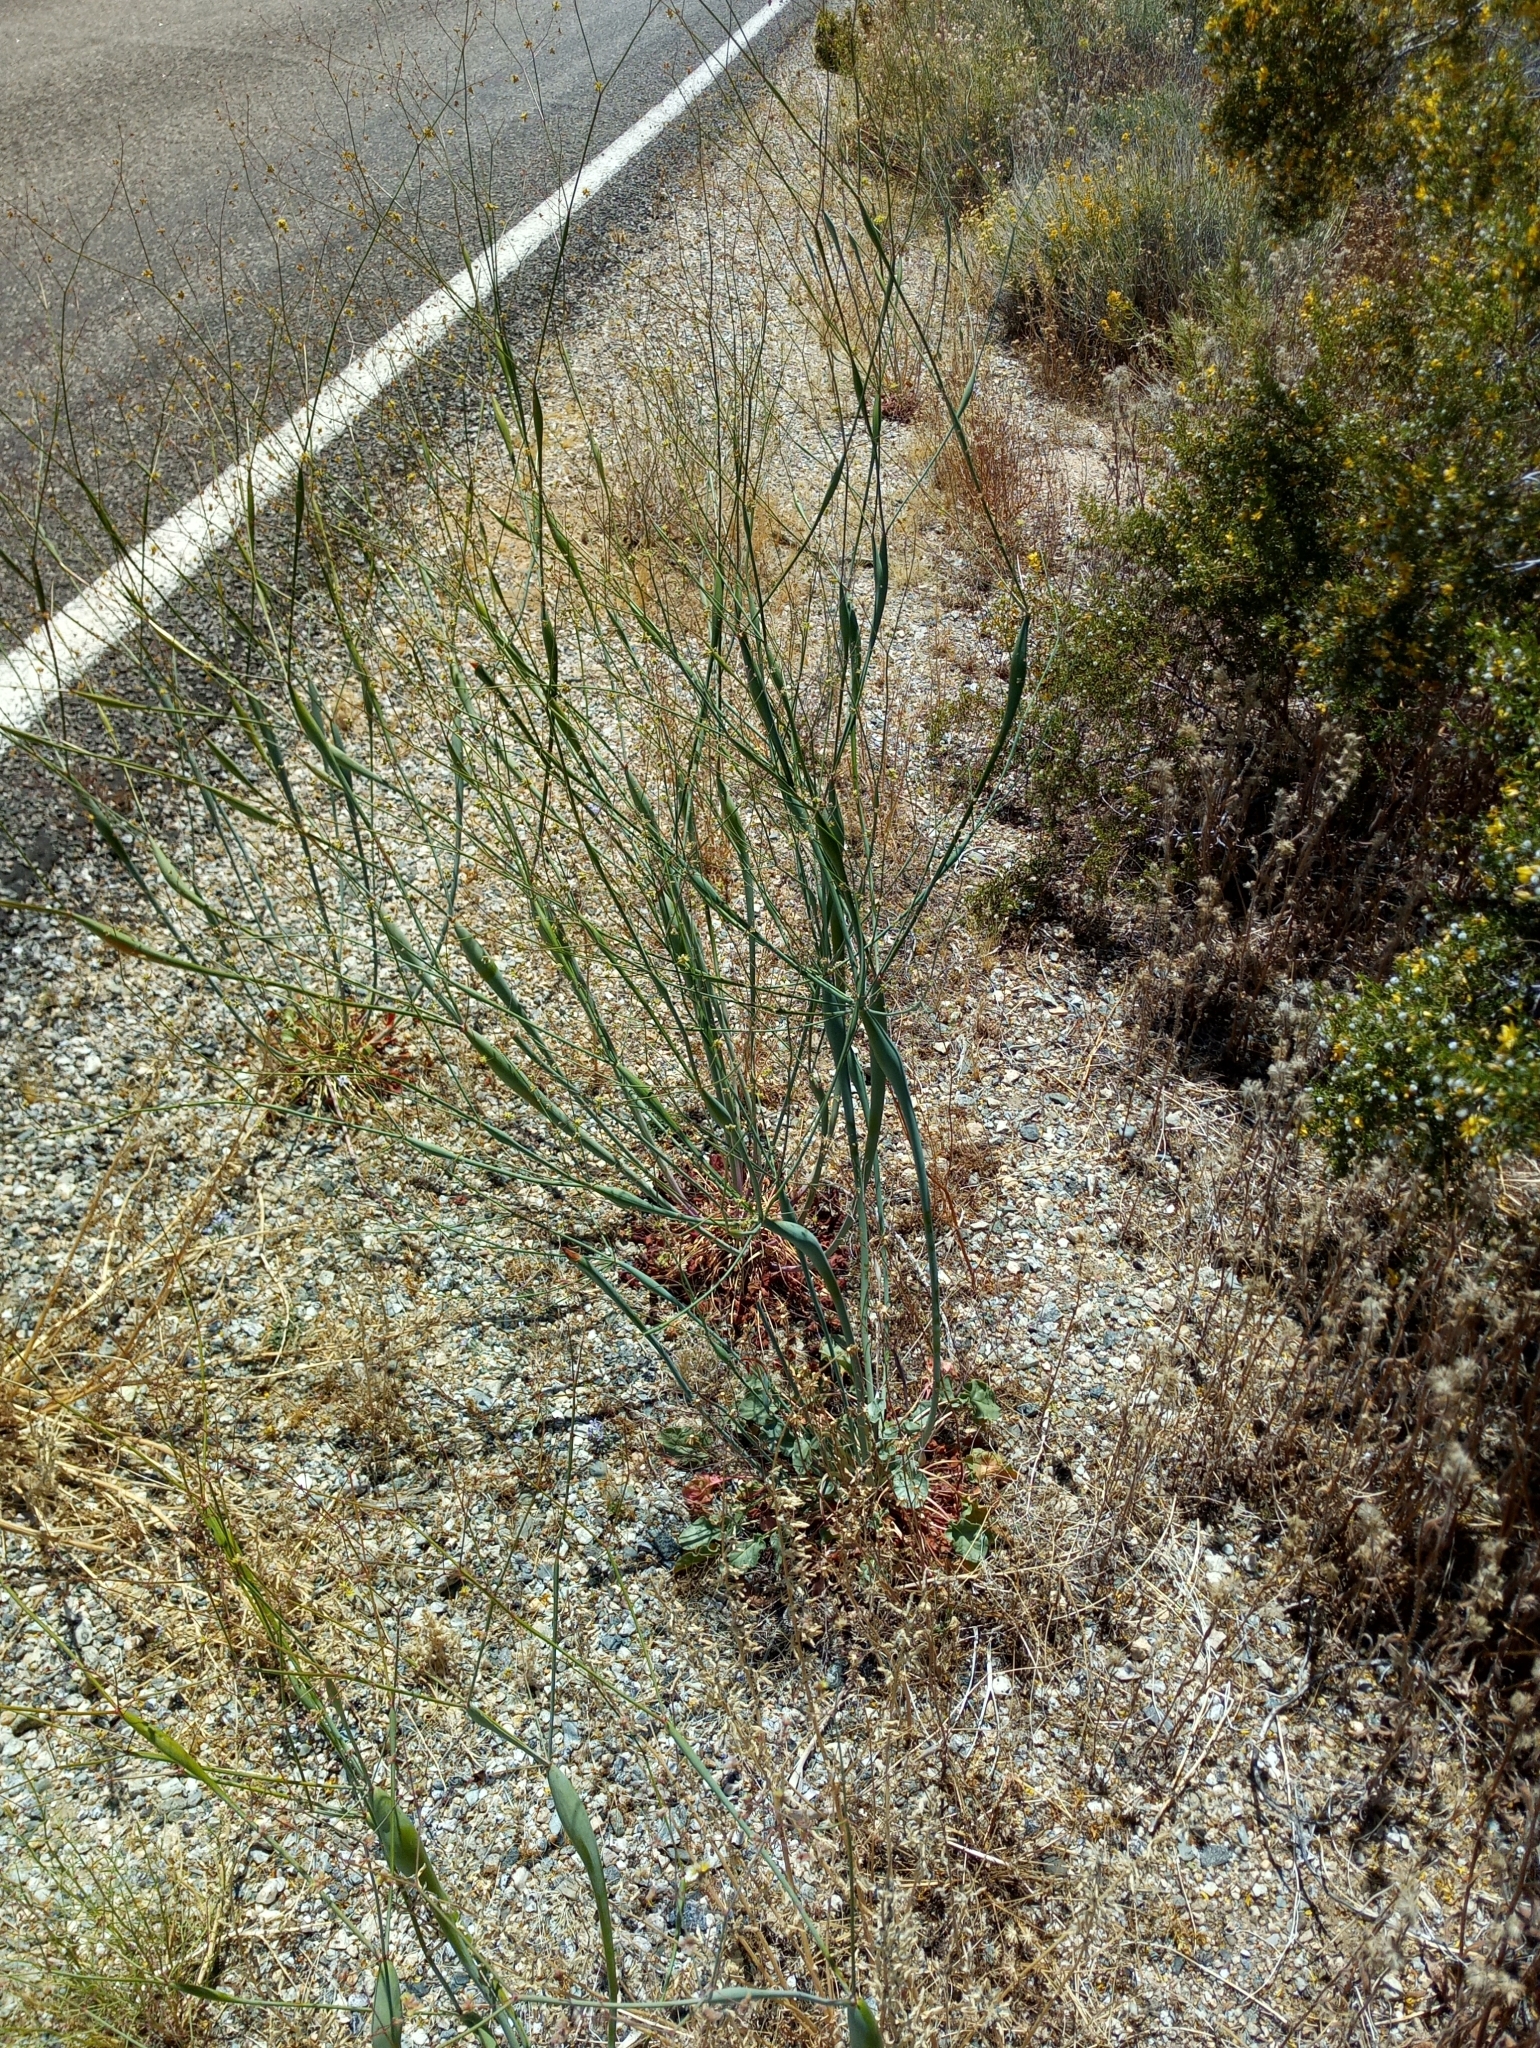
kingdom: Plantae
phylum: Tracheophyta
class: Magnoliopsida
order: Caryophyllales
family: Polygonaceae
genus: Eriogonum
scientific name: Eriogonum inflatum
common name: Desert trumpet
